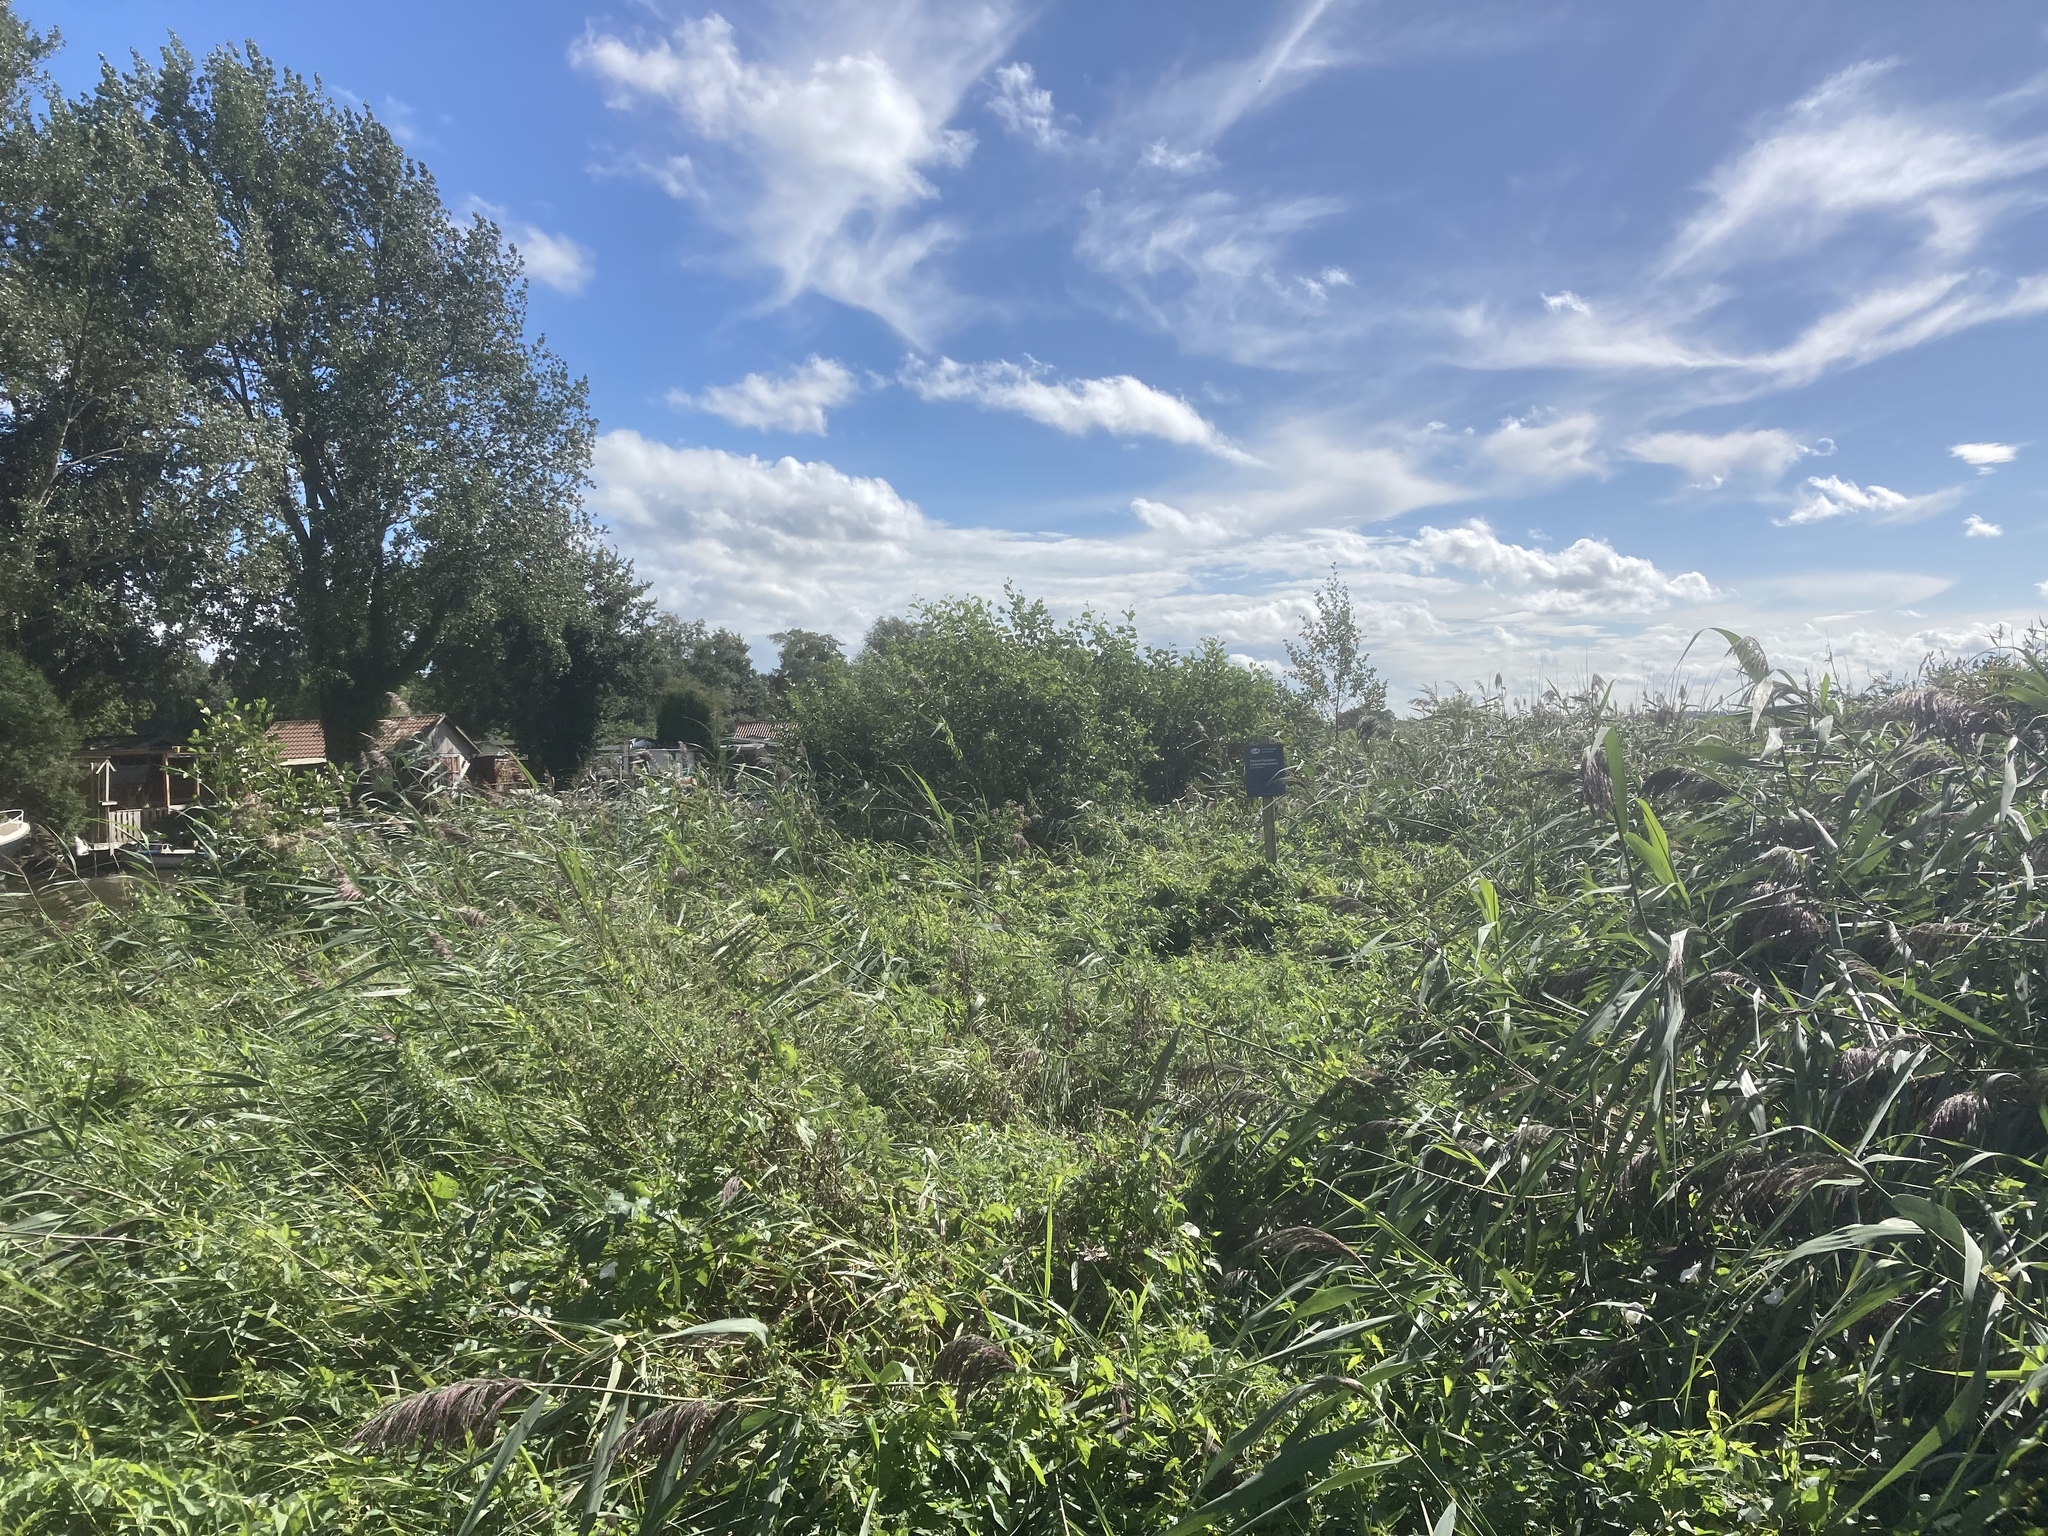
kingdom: Plantae
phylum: Tracheophyta
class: Liliopsida
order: Poales
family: Poaceae
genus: Phragmites
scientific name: Phragmites australis
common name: Common reed
